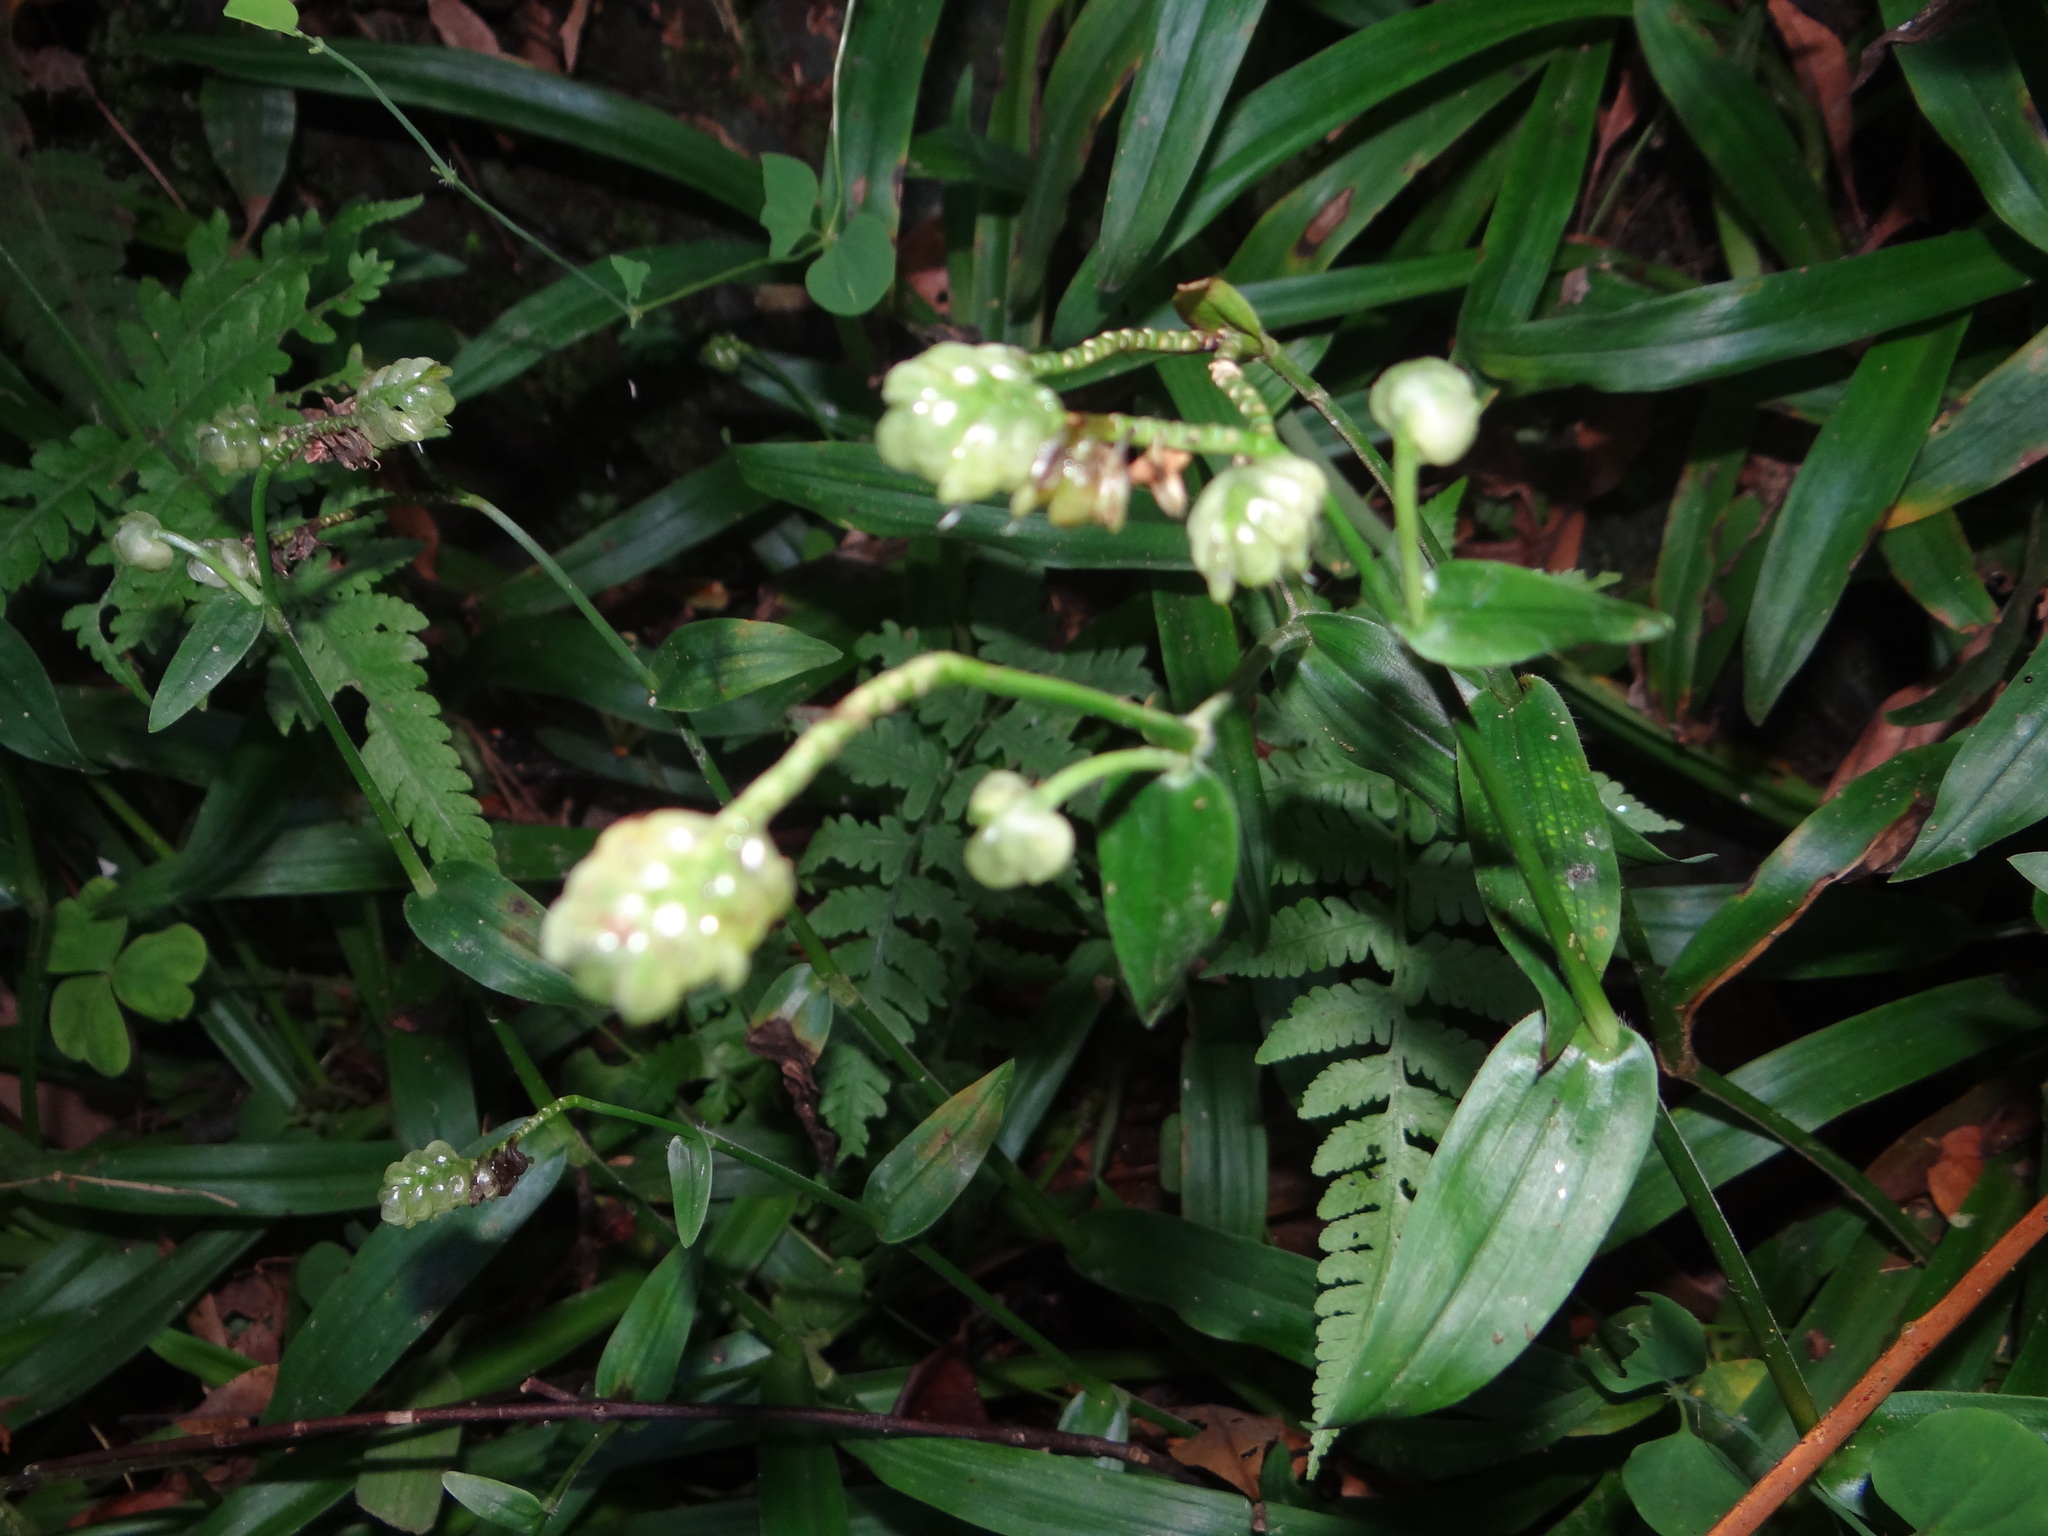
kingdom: Plantae
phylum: Tracheophyta
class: Liliopsida
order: Commelinales
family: Commelinaceae
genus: Murdannia
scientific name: Murdannia bracteata
